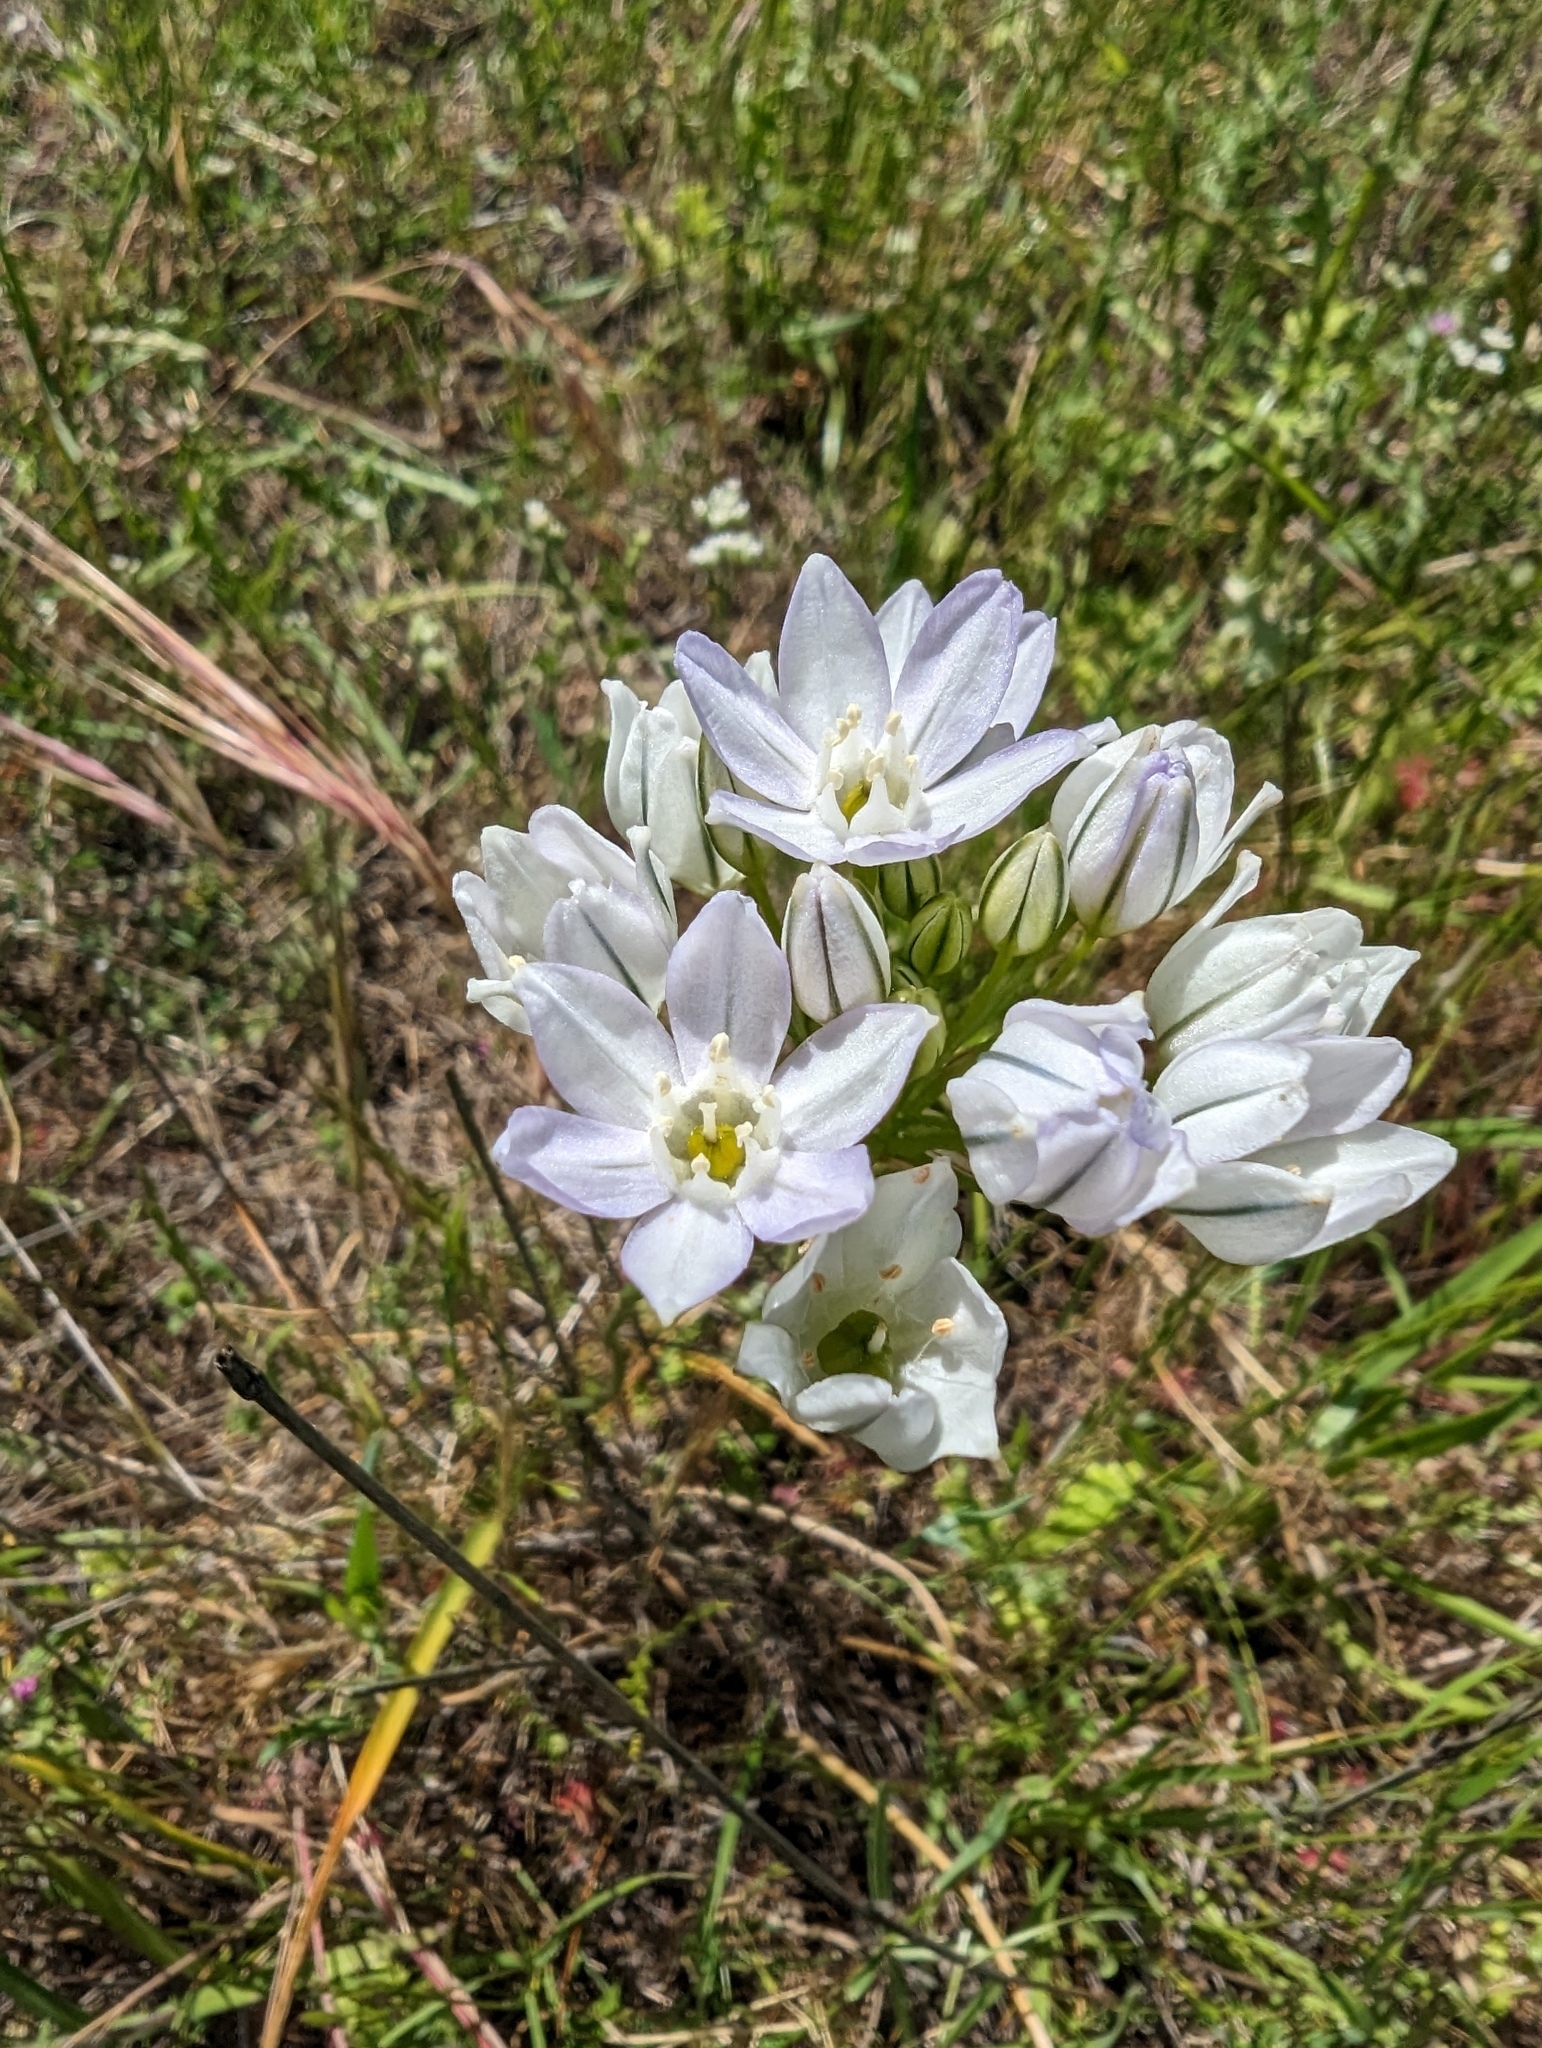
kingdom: Plantae
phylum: Tracheophyta
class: Liliopsida
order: Asparagales
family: Asparagaceae
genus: Triteleia
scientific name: Triteleia hyacinthina
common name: White brodiaea
